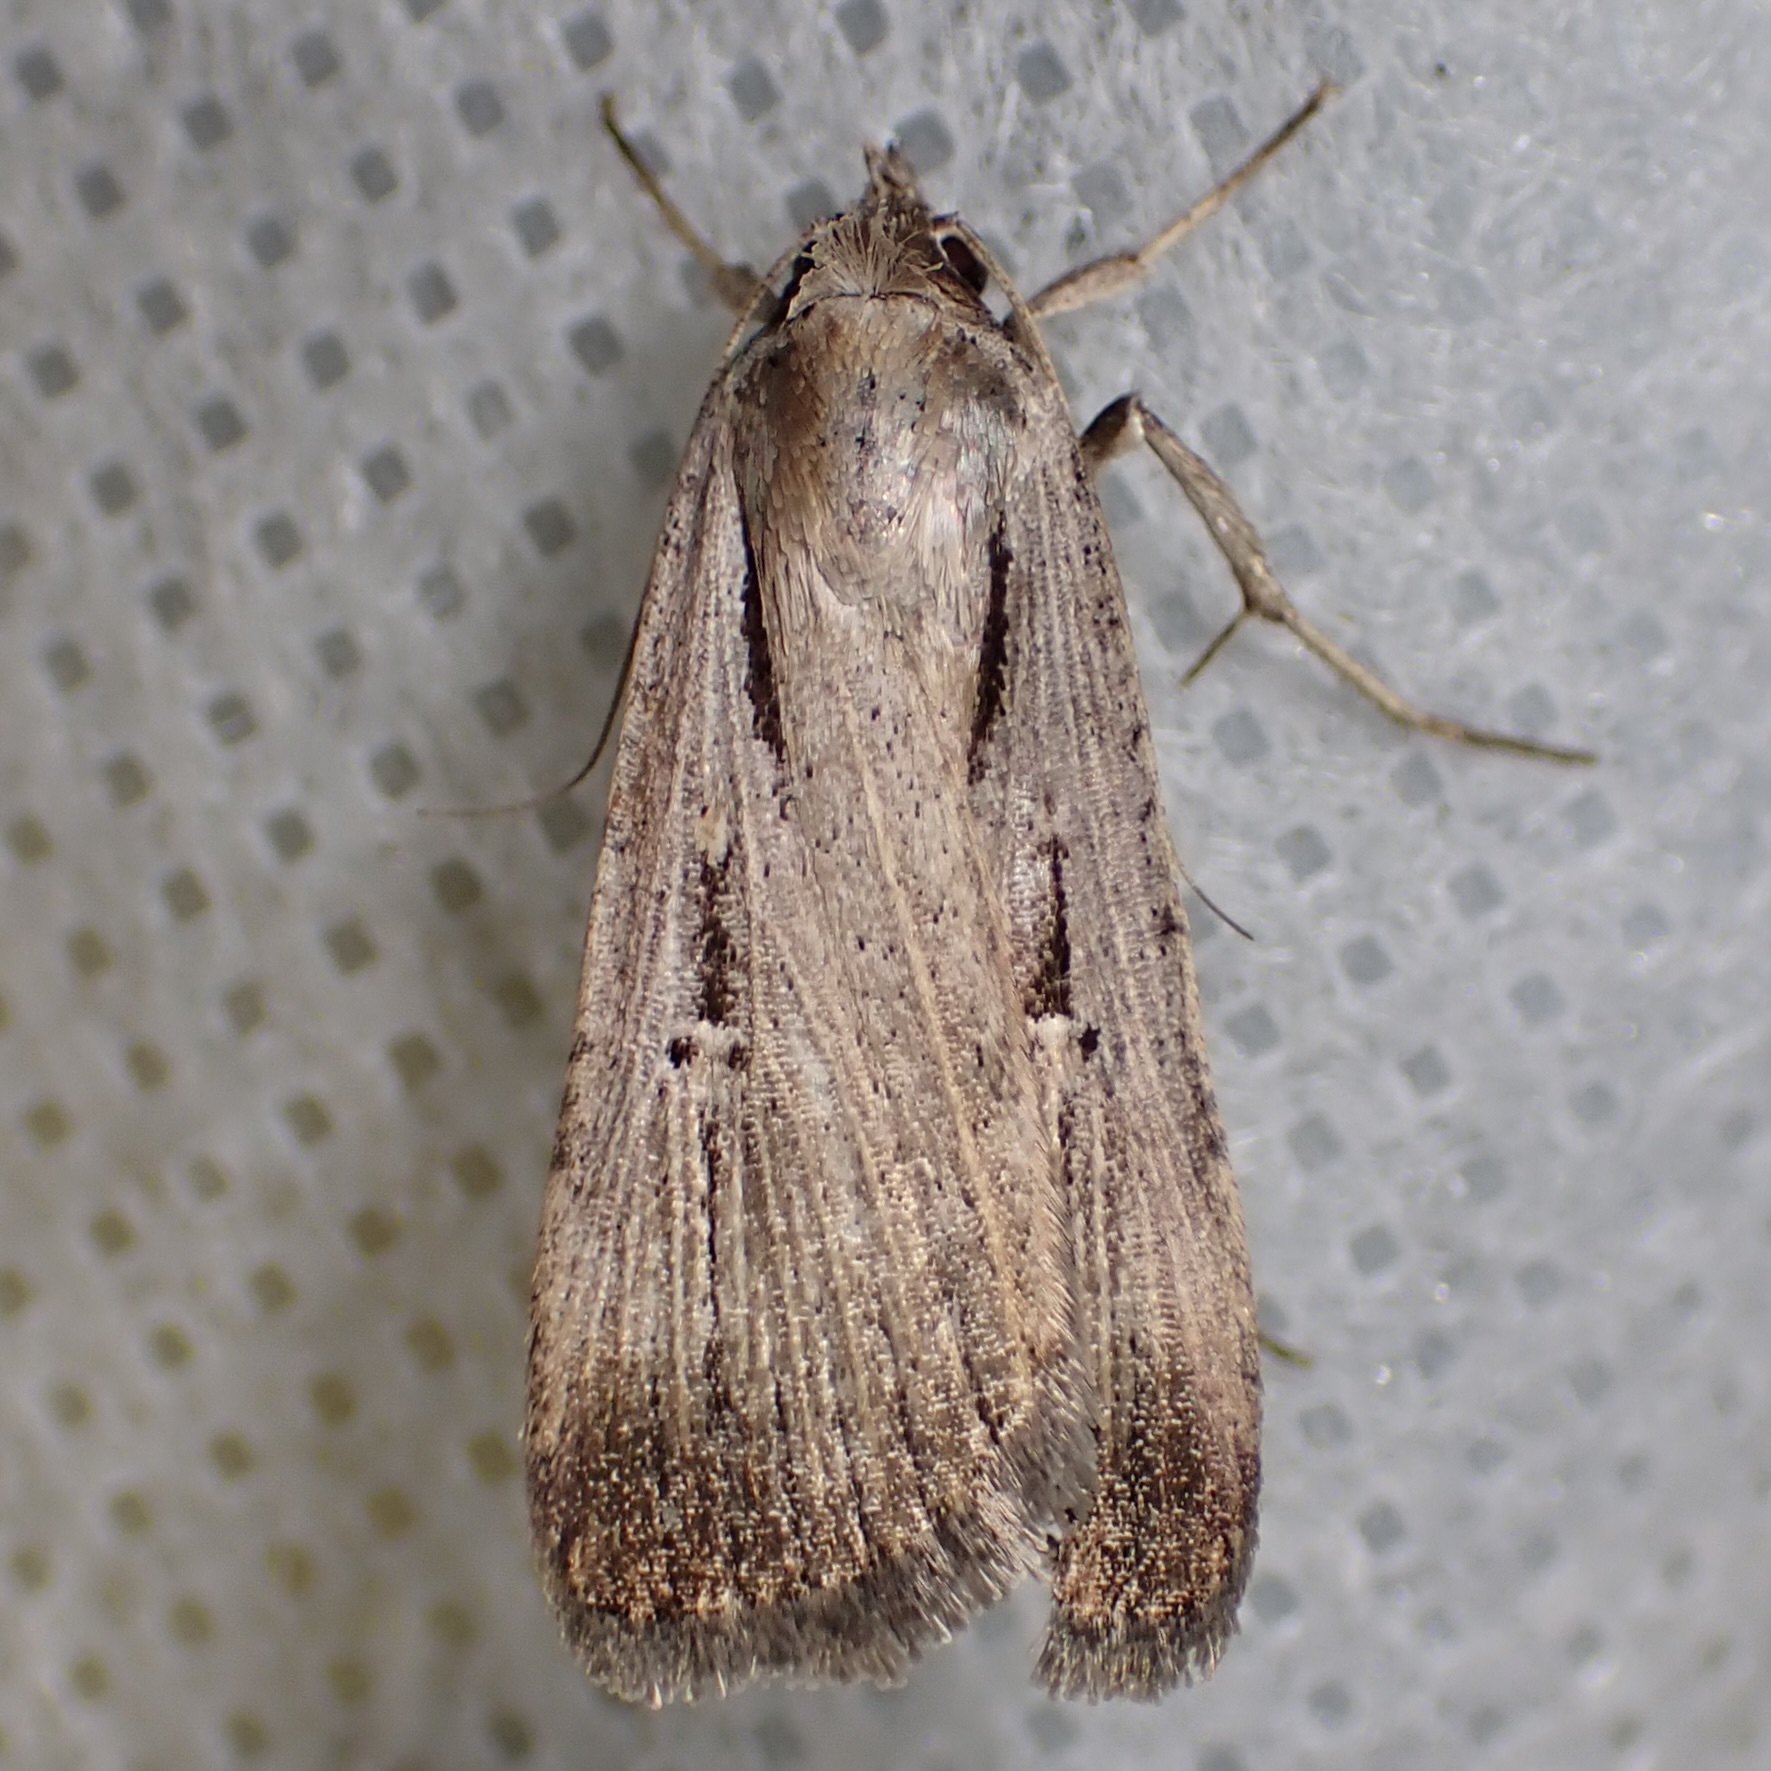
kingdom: Animalia
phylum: Arthropoda
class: Insecta
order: Lepidoptera
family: Noctuidae
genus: Tathorhynchus
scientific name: Tathorhynchus exsiccata
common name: Levant blackneck moth
